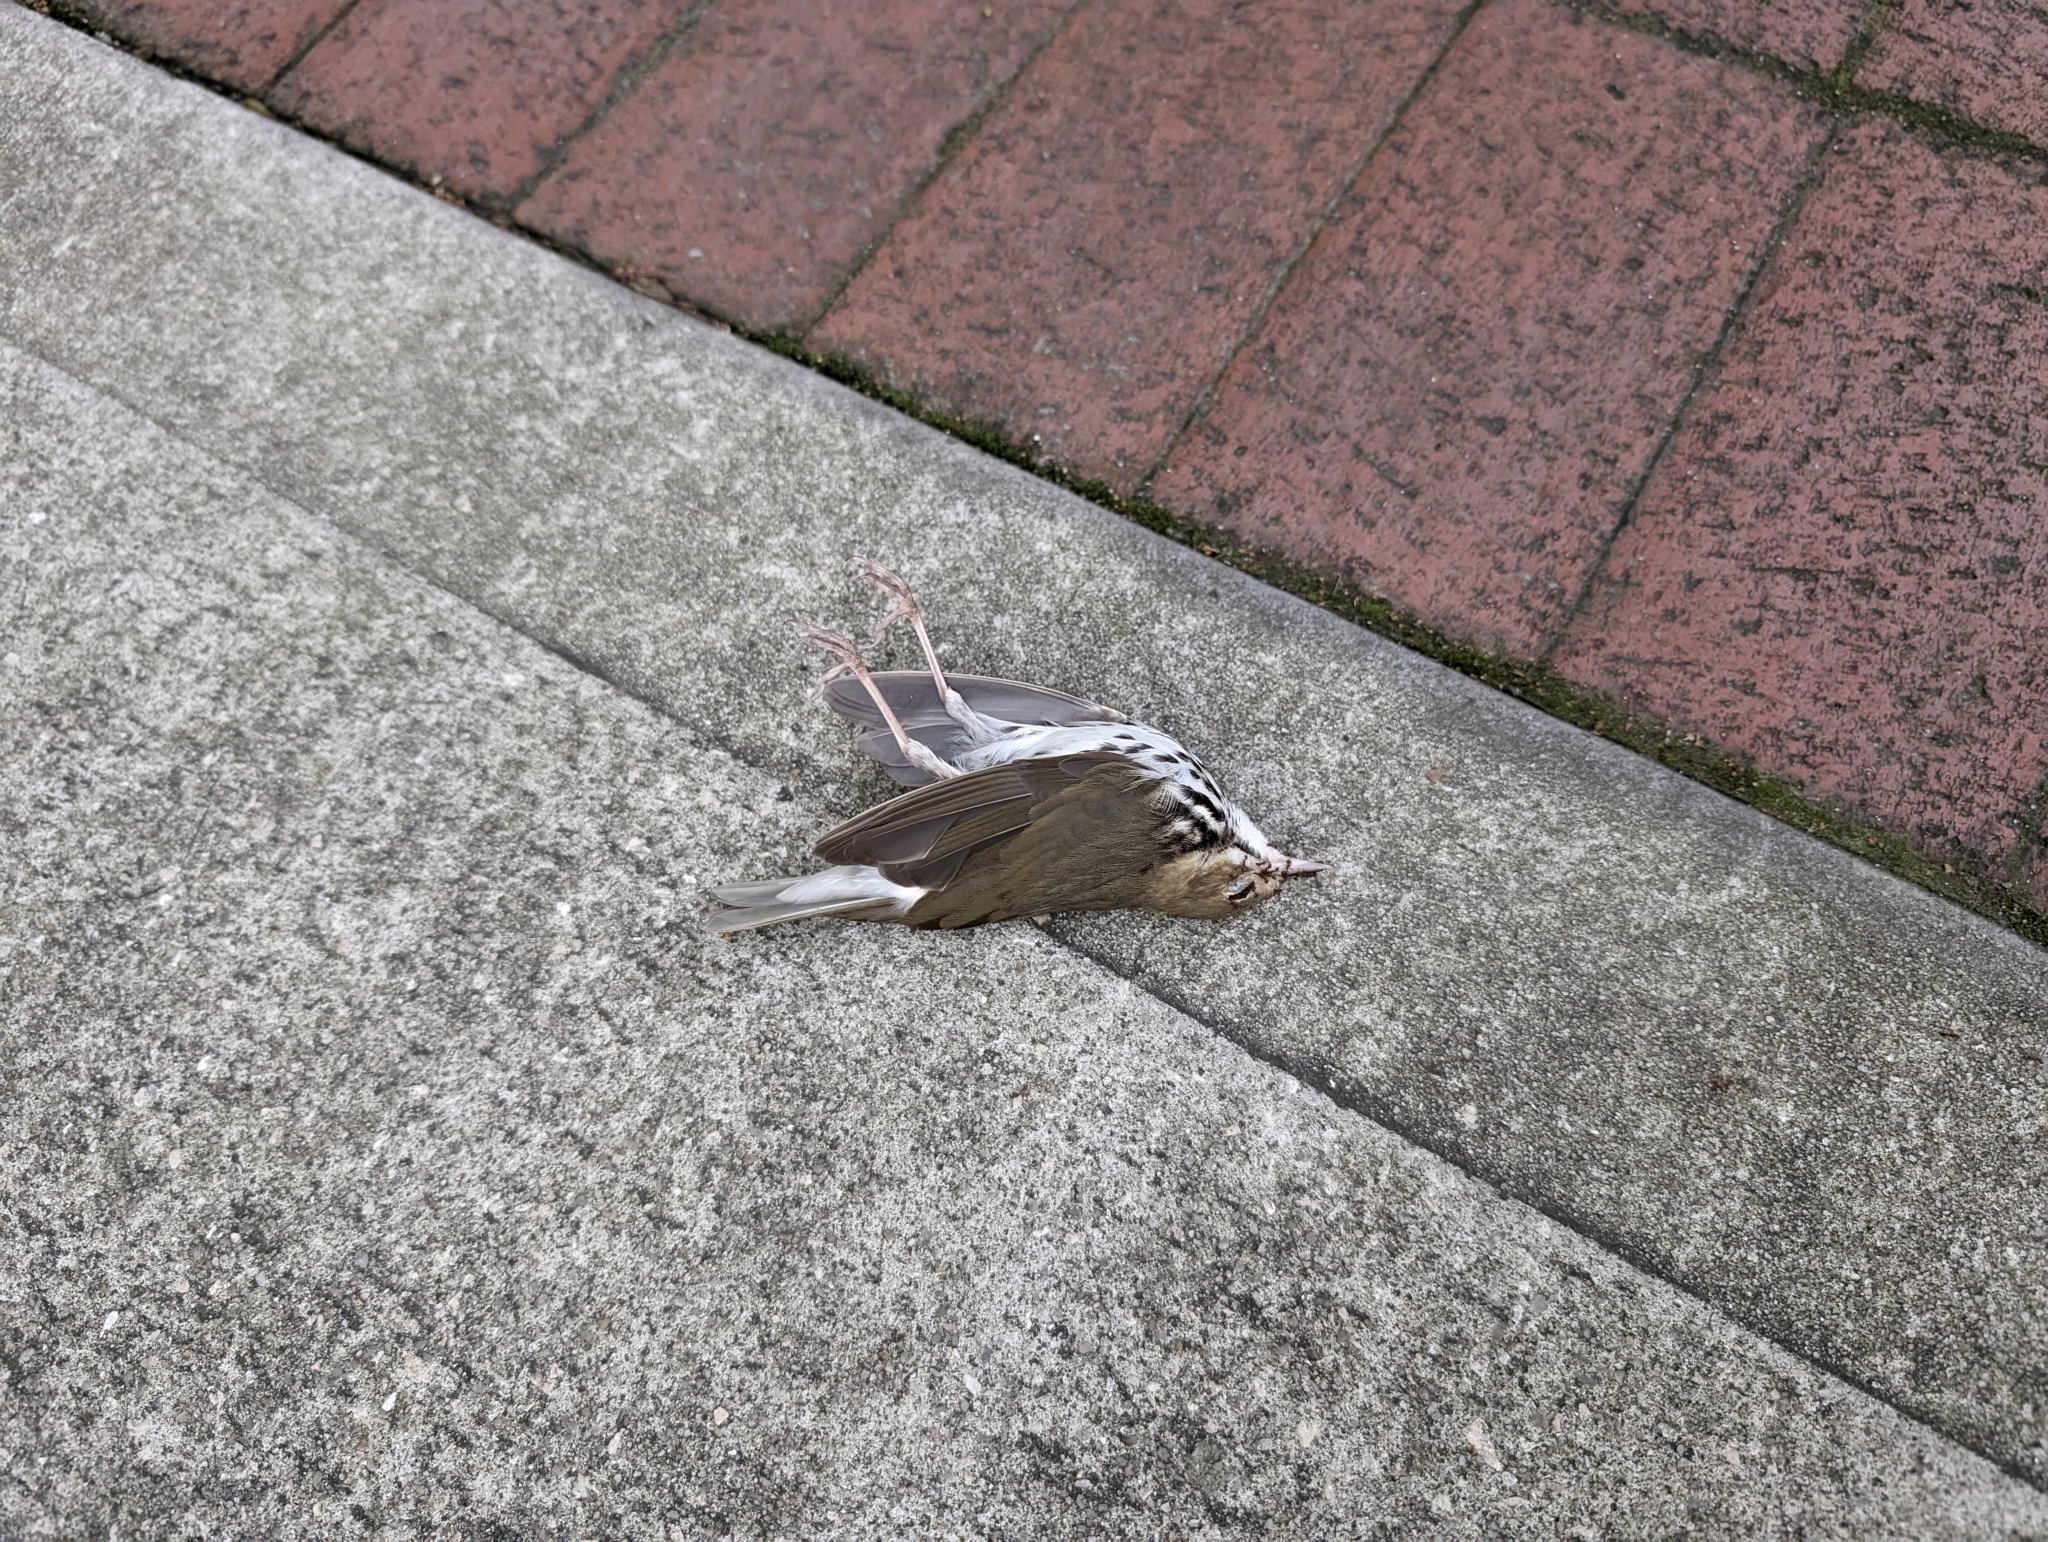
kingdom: Animalia
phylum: Chordata
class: Aves
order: Passeriformes
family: Parulidae
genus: Seiurus
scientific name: Seiurus aurocapilla
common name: Ovenbird
